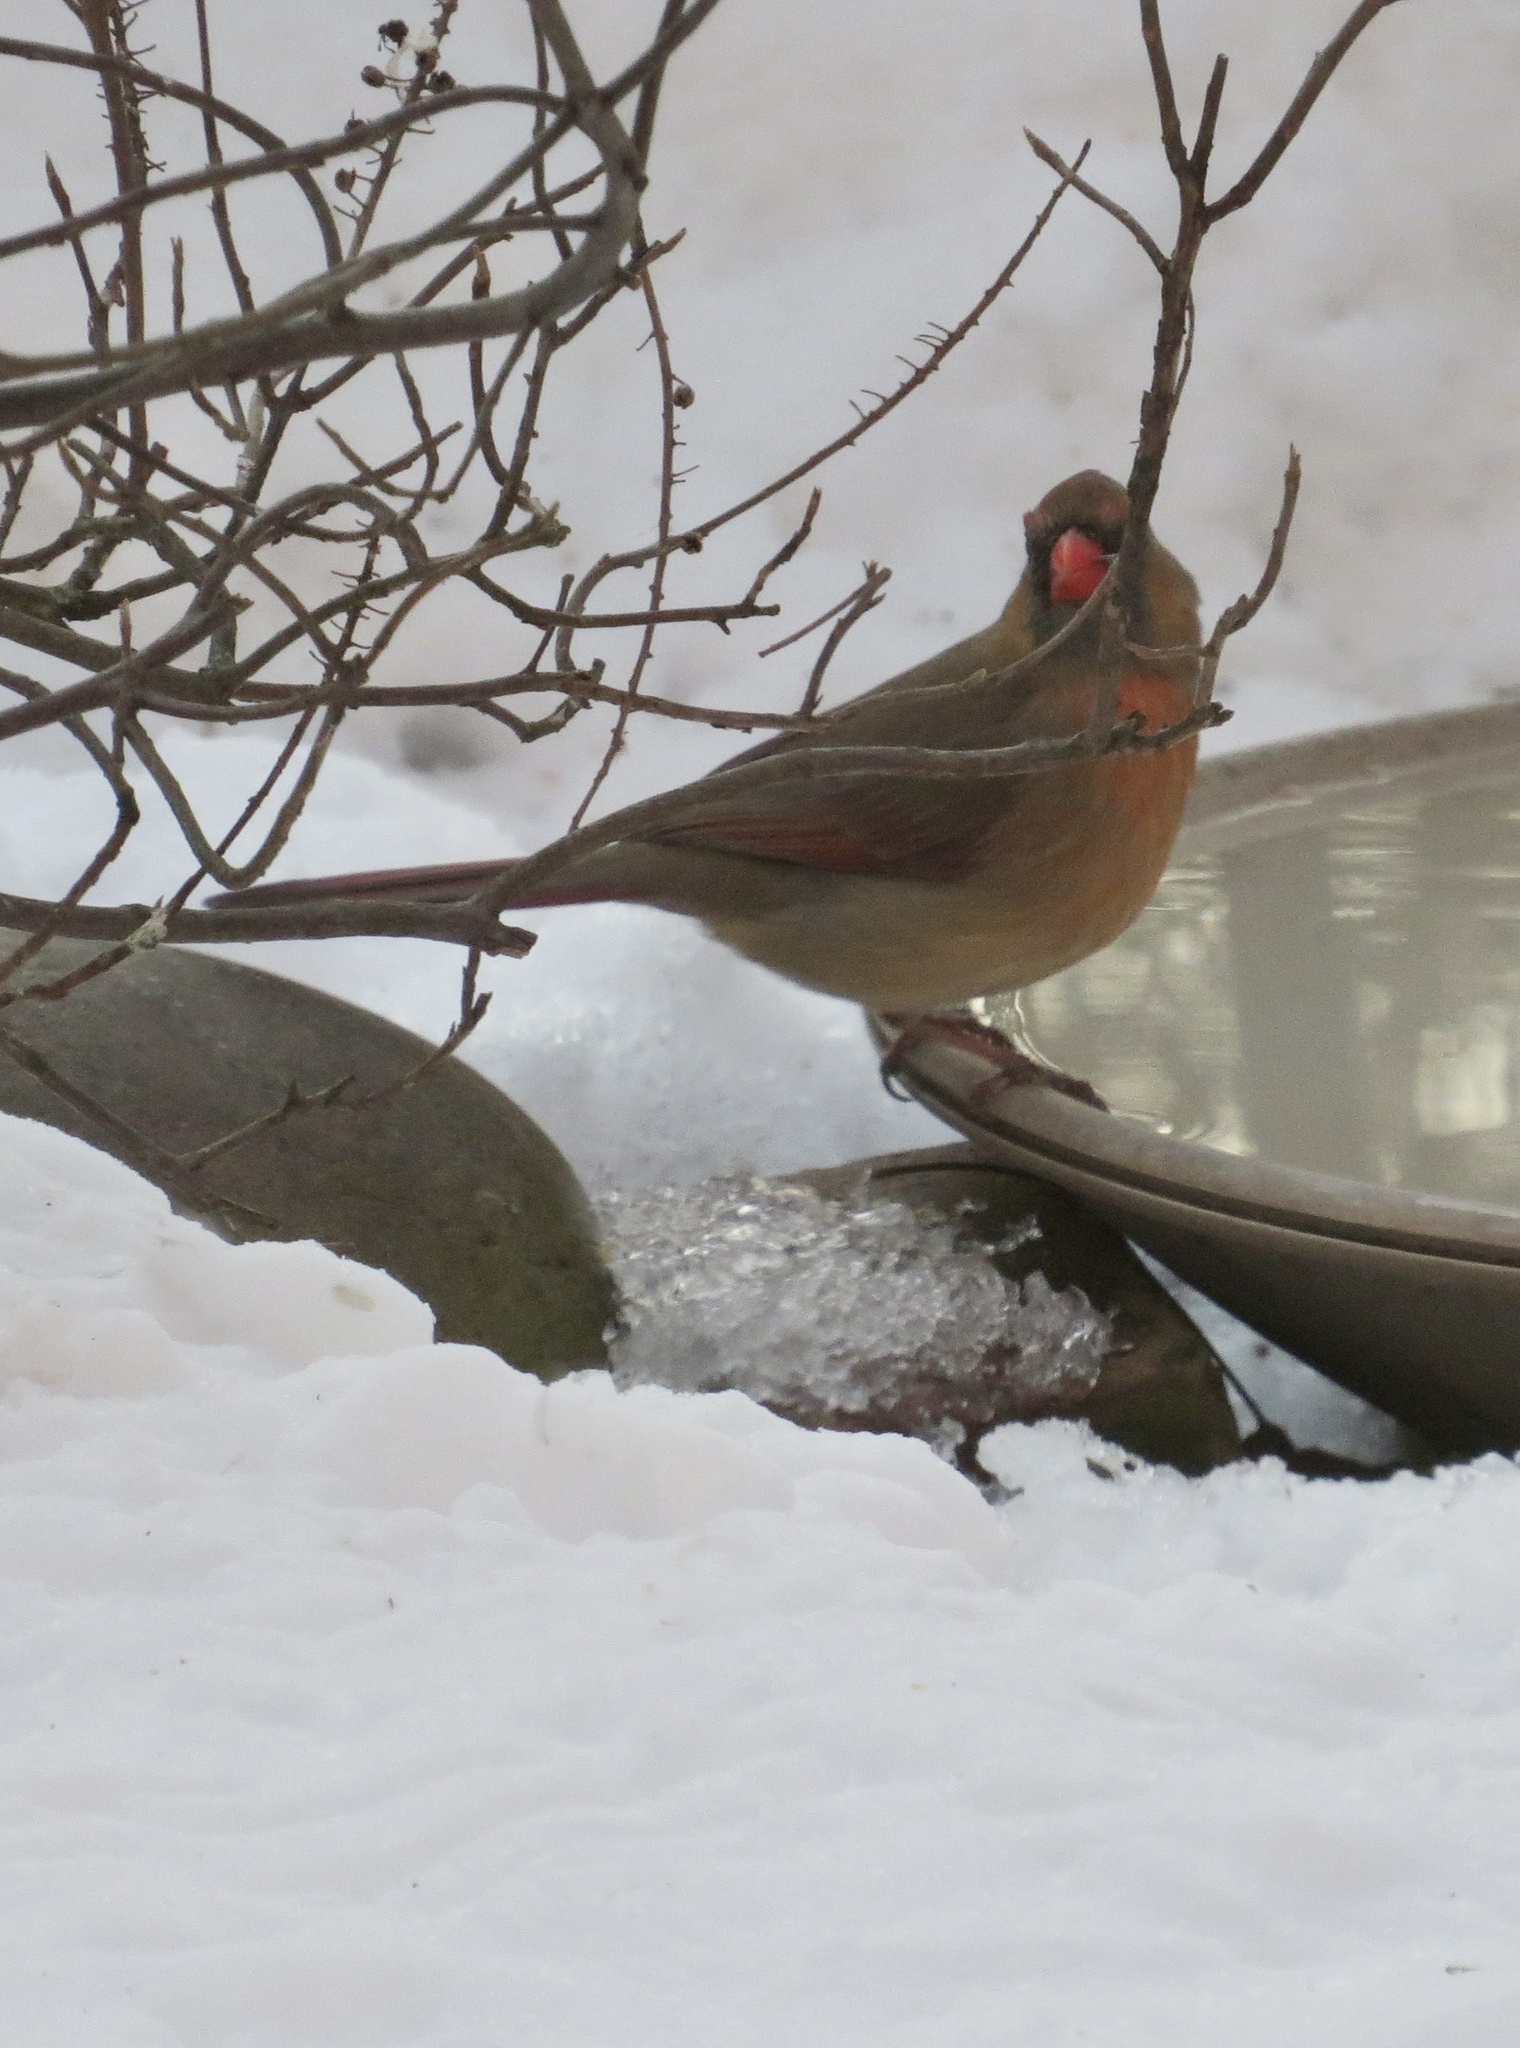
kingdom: Animalia
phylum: Chordata
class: Aves
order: Passeriformes
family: Cardinalidae
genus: Cardinalis
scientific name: Cardinalis cardinalis
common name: Northern cardinal
